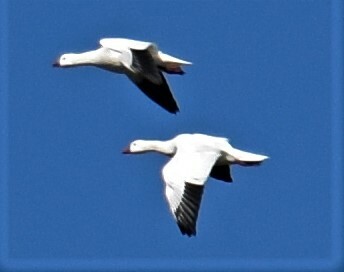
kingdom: Animalia
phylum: Chordata
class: Aves
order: Anseriformes
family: Anatidae
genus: Anser
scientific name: Anser rossii
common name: Ross's goose
